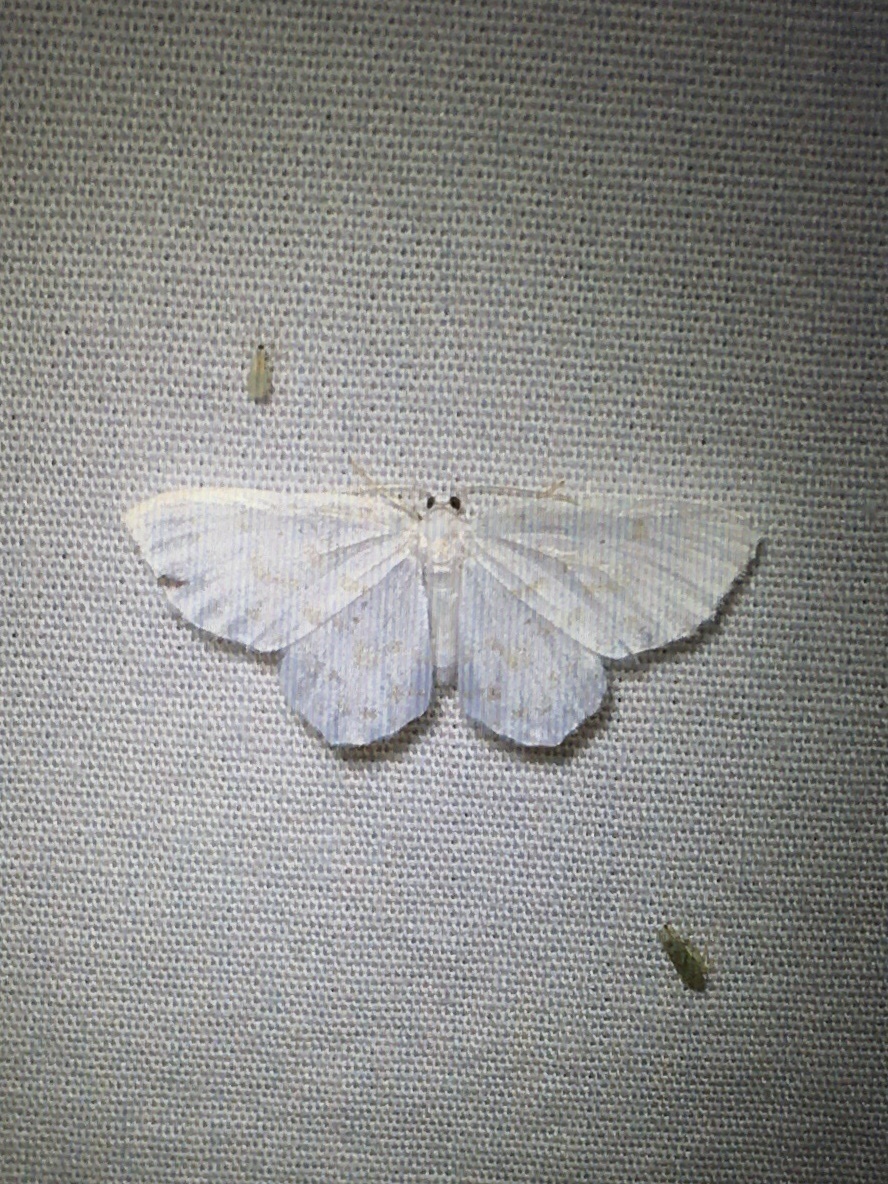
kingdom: Animalia
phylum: Arthropoda
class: Insecta
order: Lepidoptera
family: Geometridae
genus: Hydrelia
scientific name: Hydrelia albifera
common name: Fragile white carpet
